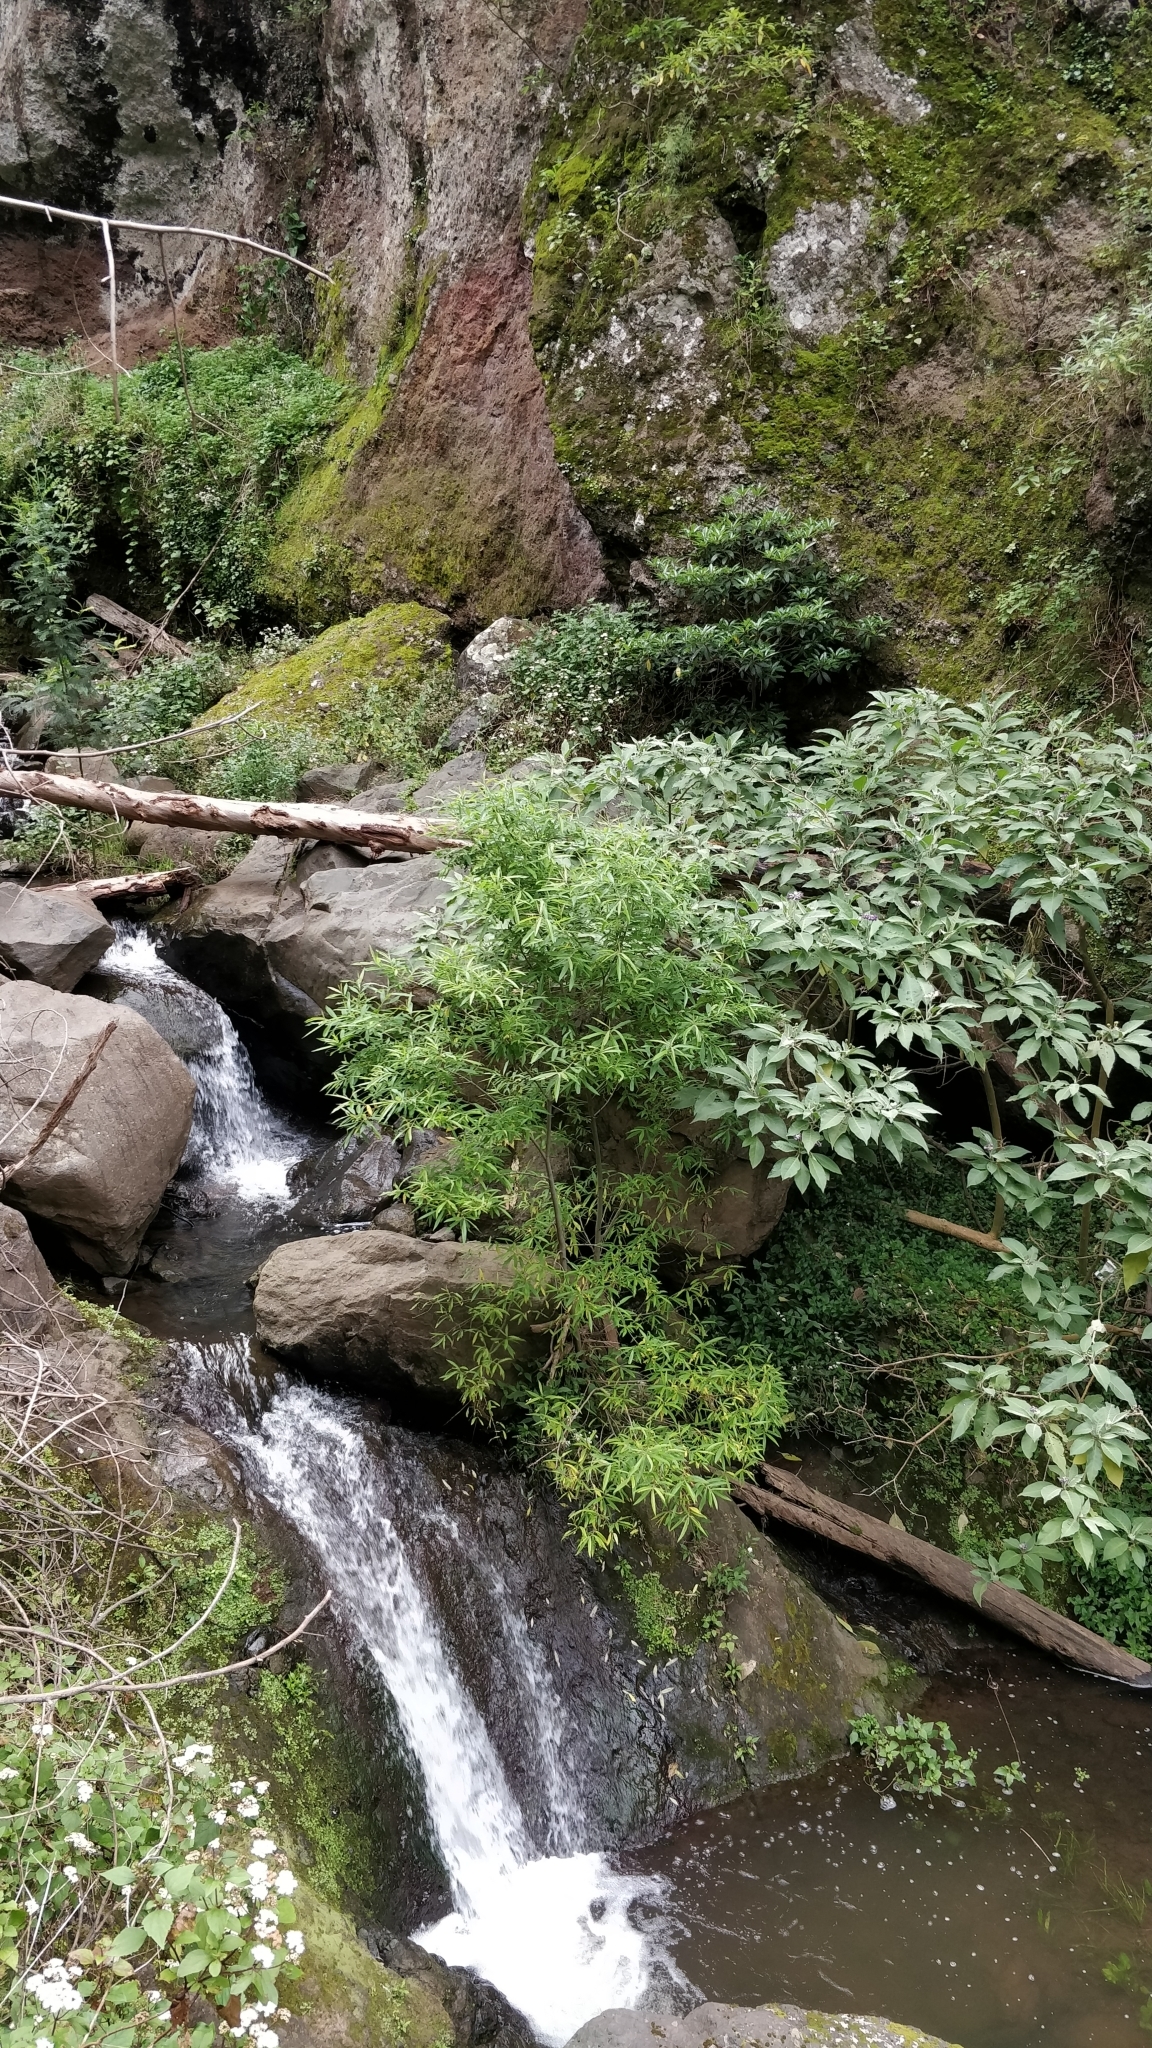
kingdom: Plantae
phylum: Tracheophyta
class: Magnoliopsida
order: Malpighiales
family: Salicaceae
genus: Salix
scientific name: Salix canariensis
